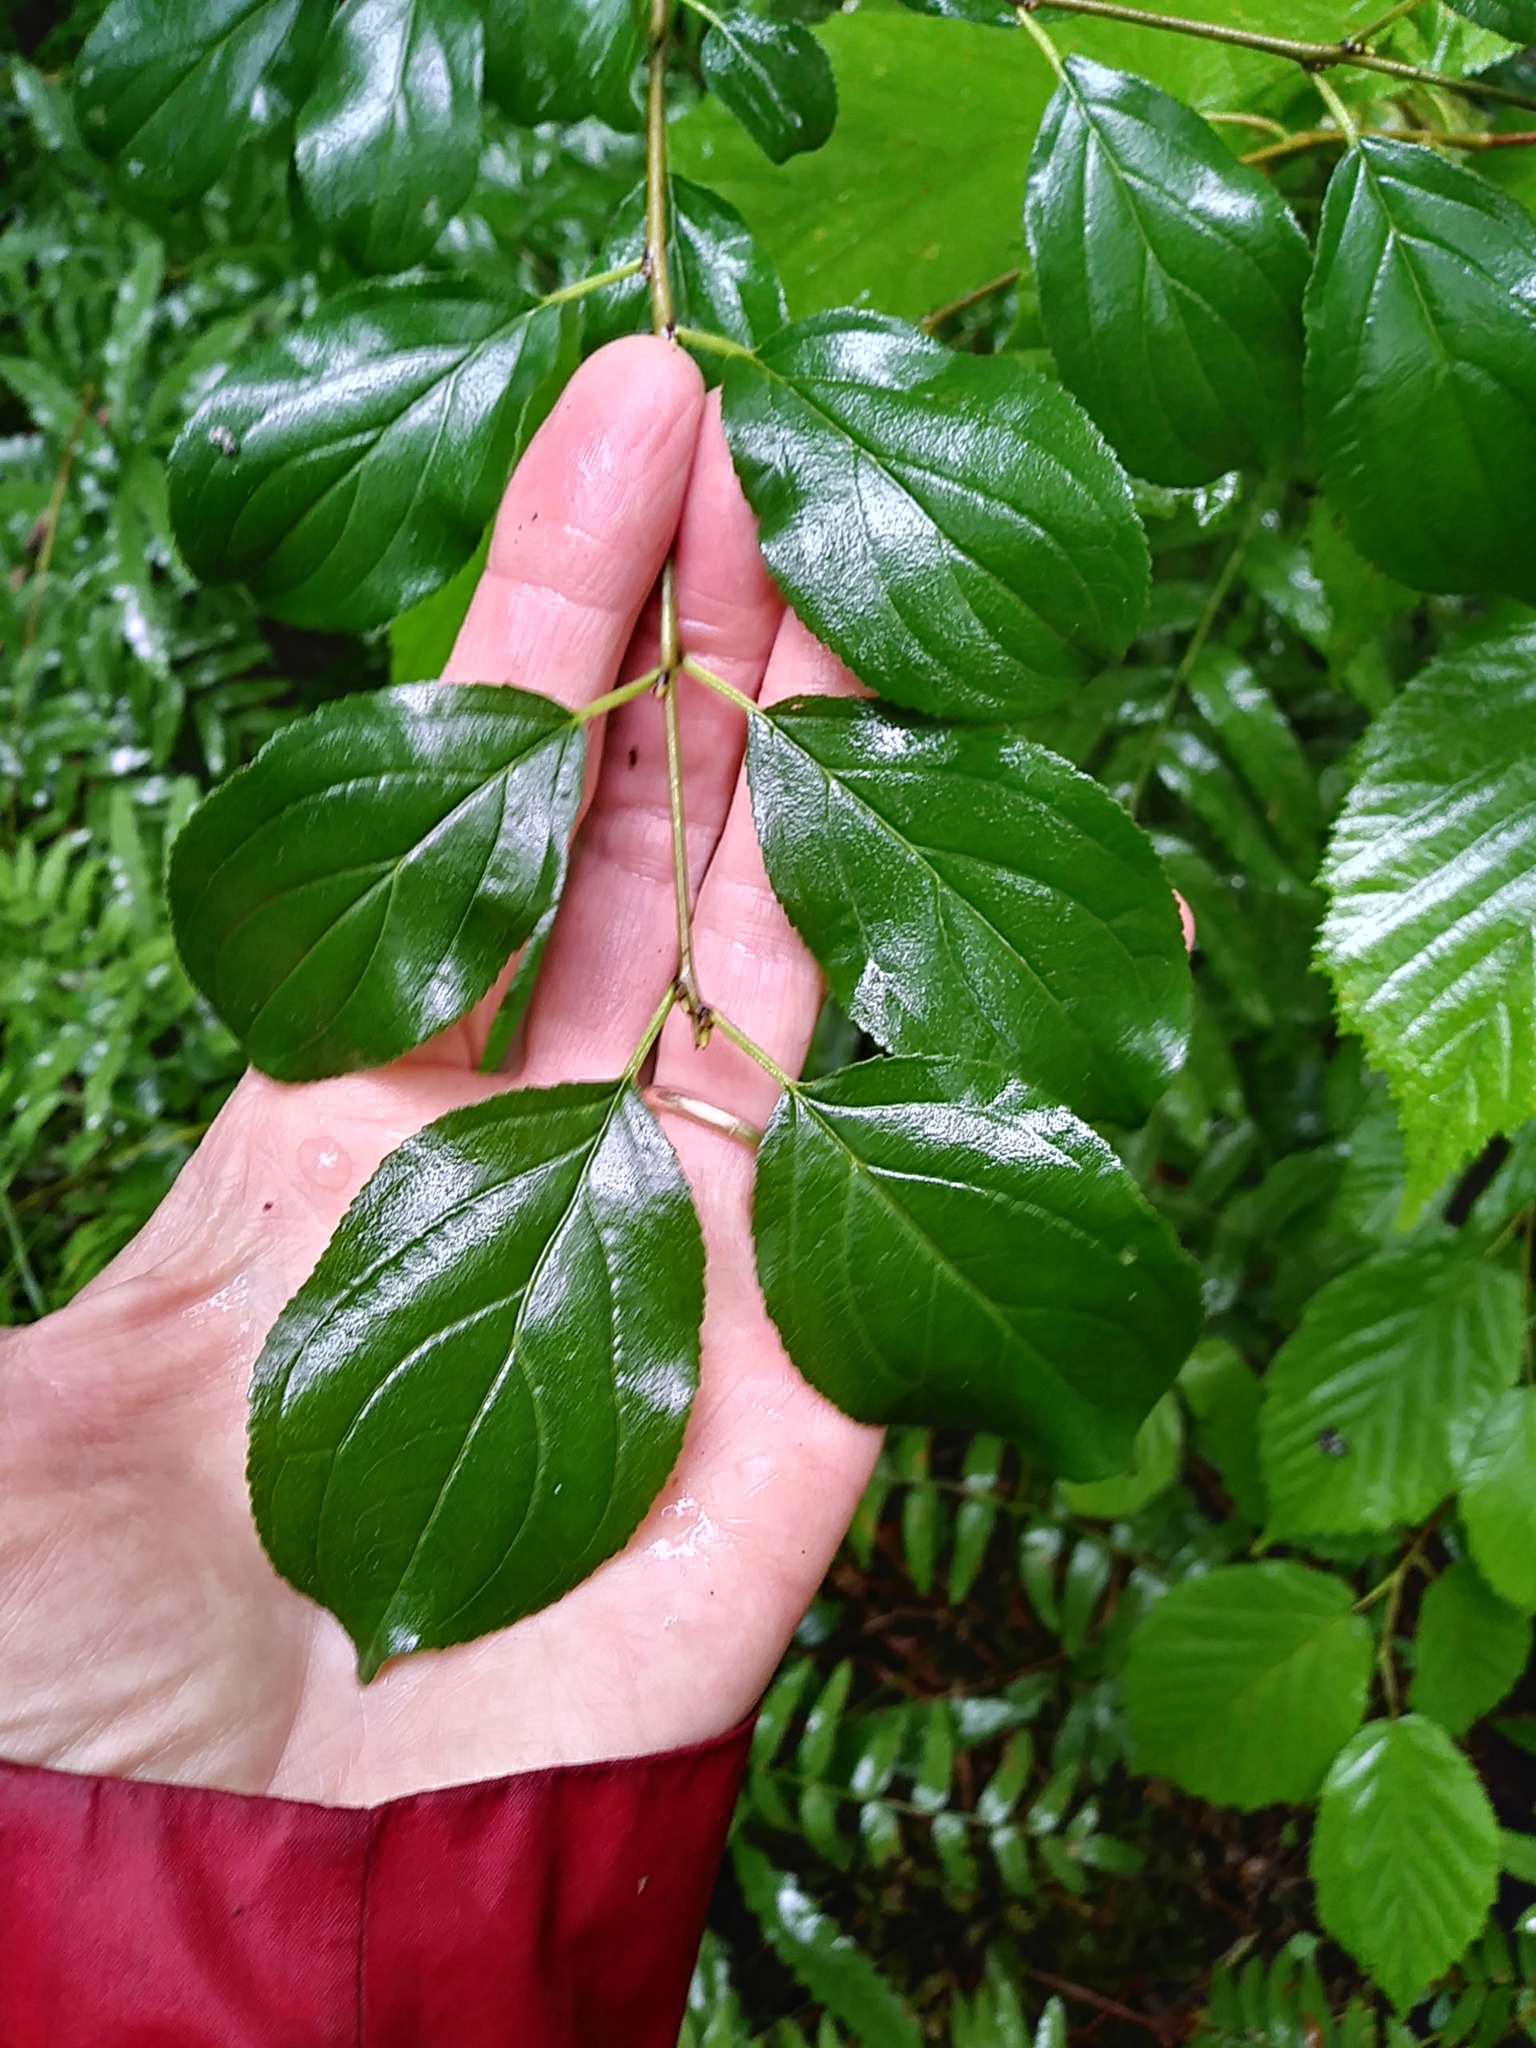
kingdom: Plantae
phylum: Tracheophyta
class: Magnoliopsida
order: Rosales
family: Rhamnaceae
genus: Rhamnus
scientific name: Rhamnus cathartica
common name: Common buckthorn
